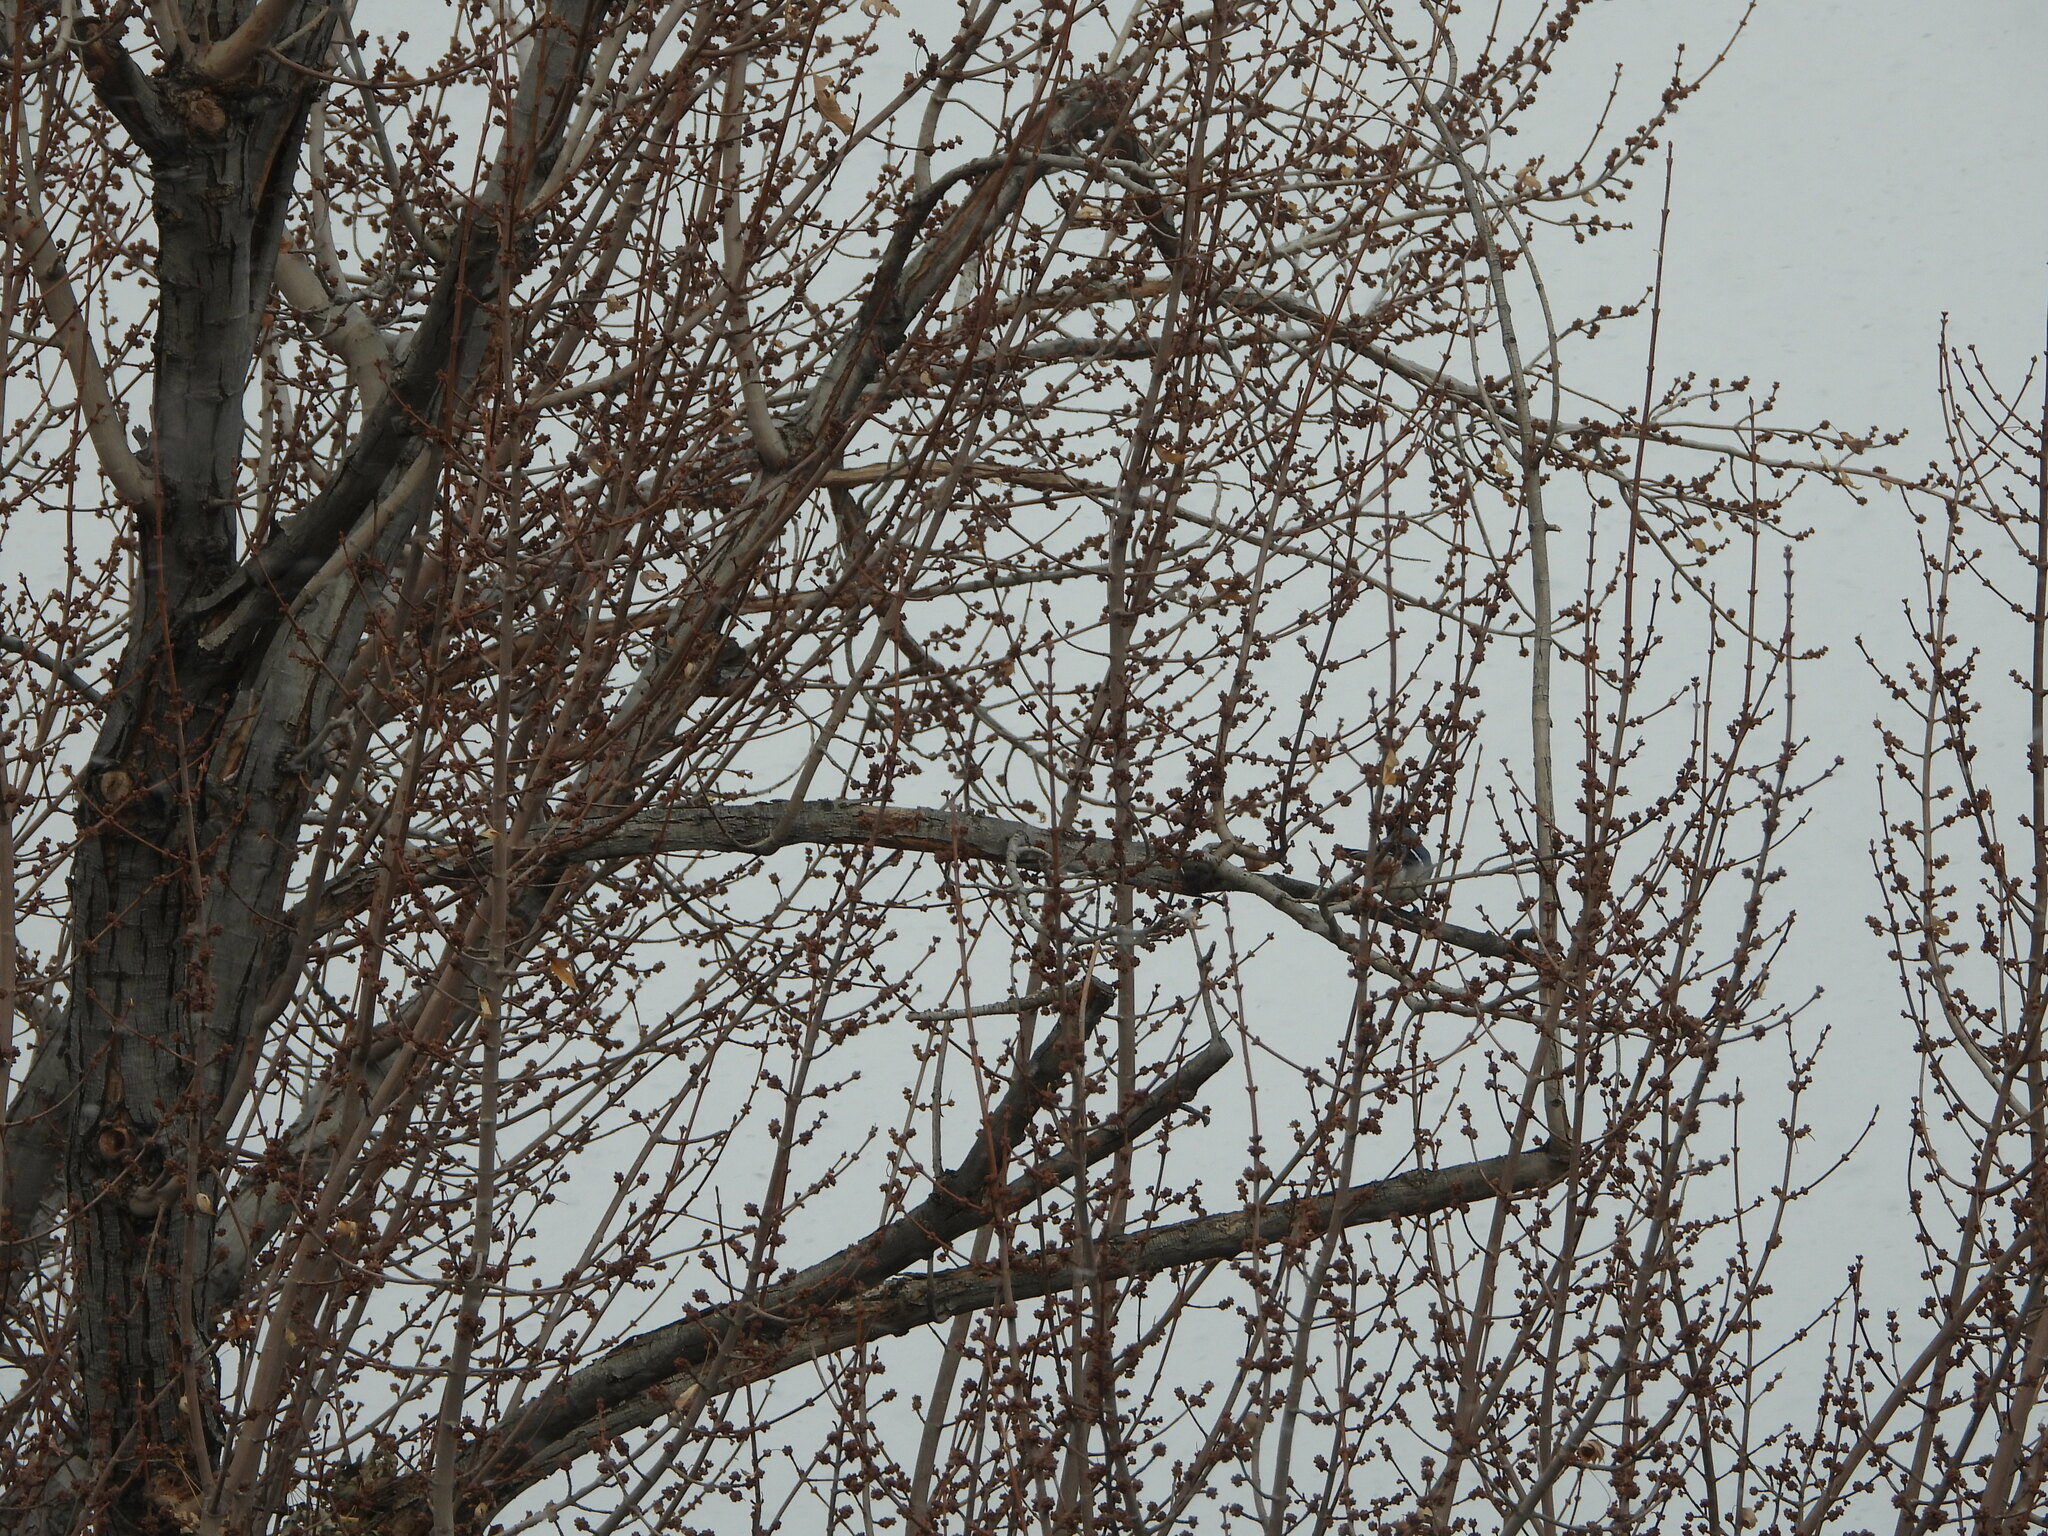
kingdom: Animalia
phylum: Chordata
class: Aves
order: Passeriformes
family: Corvidae
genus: Cyanocitta
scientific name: Cyanocitta cristata
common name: Blue jay
